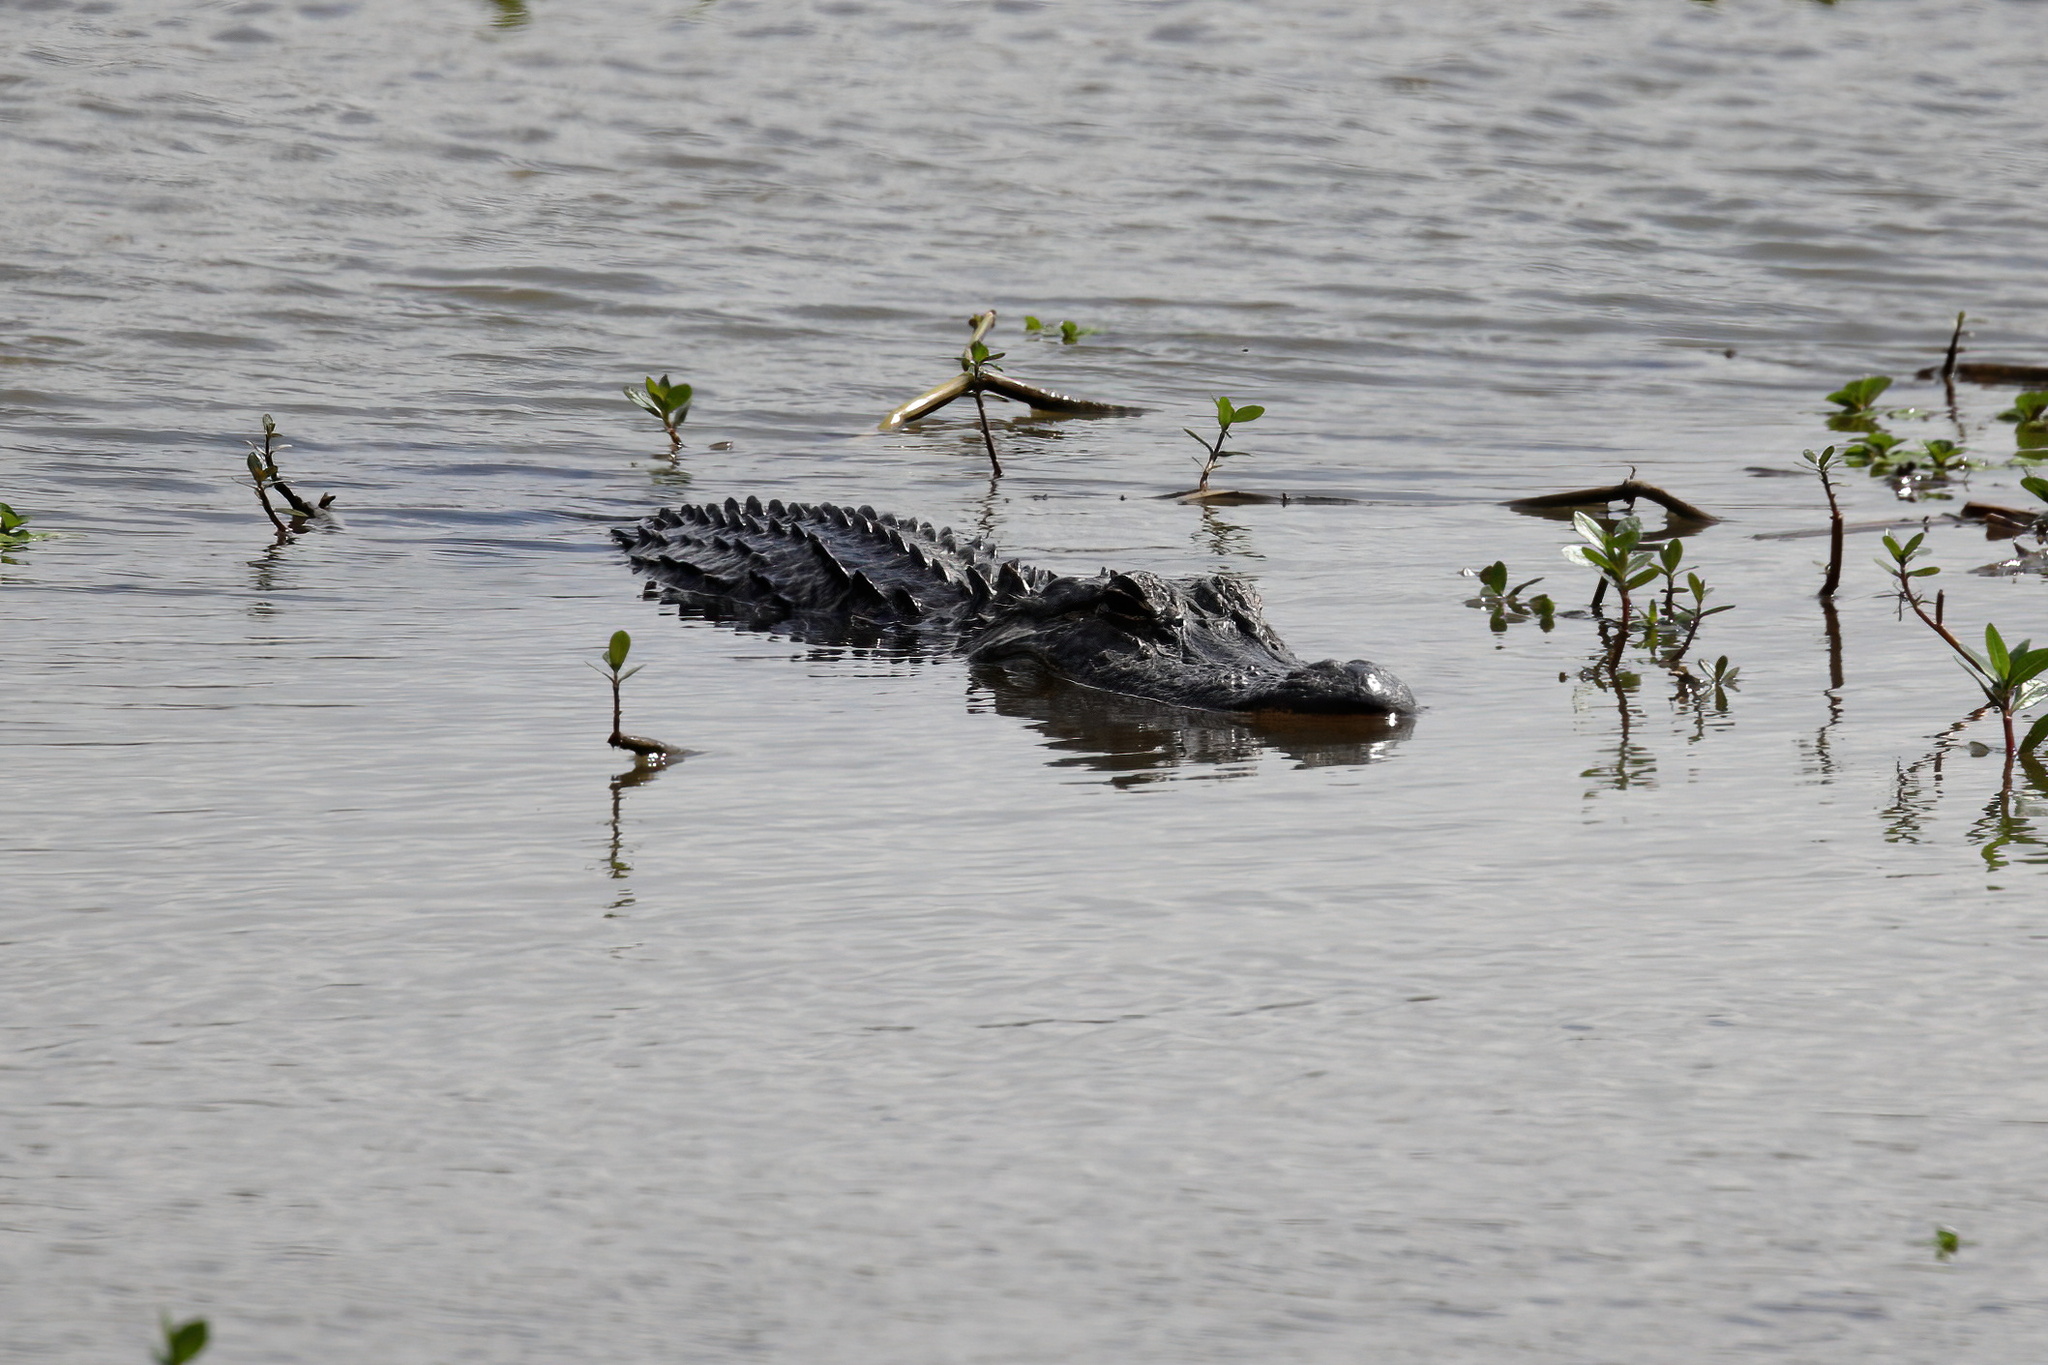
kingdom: Animalia
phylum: Chordata
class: Crocodylia
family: Alligatoridae
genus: Alligator
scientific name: Alligator mississippiensis
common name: American alligator
